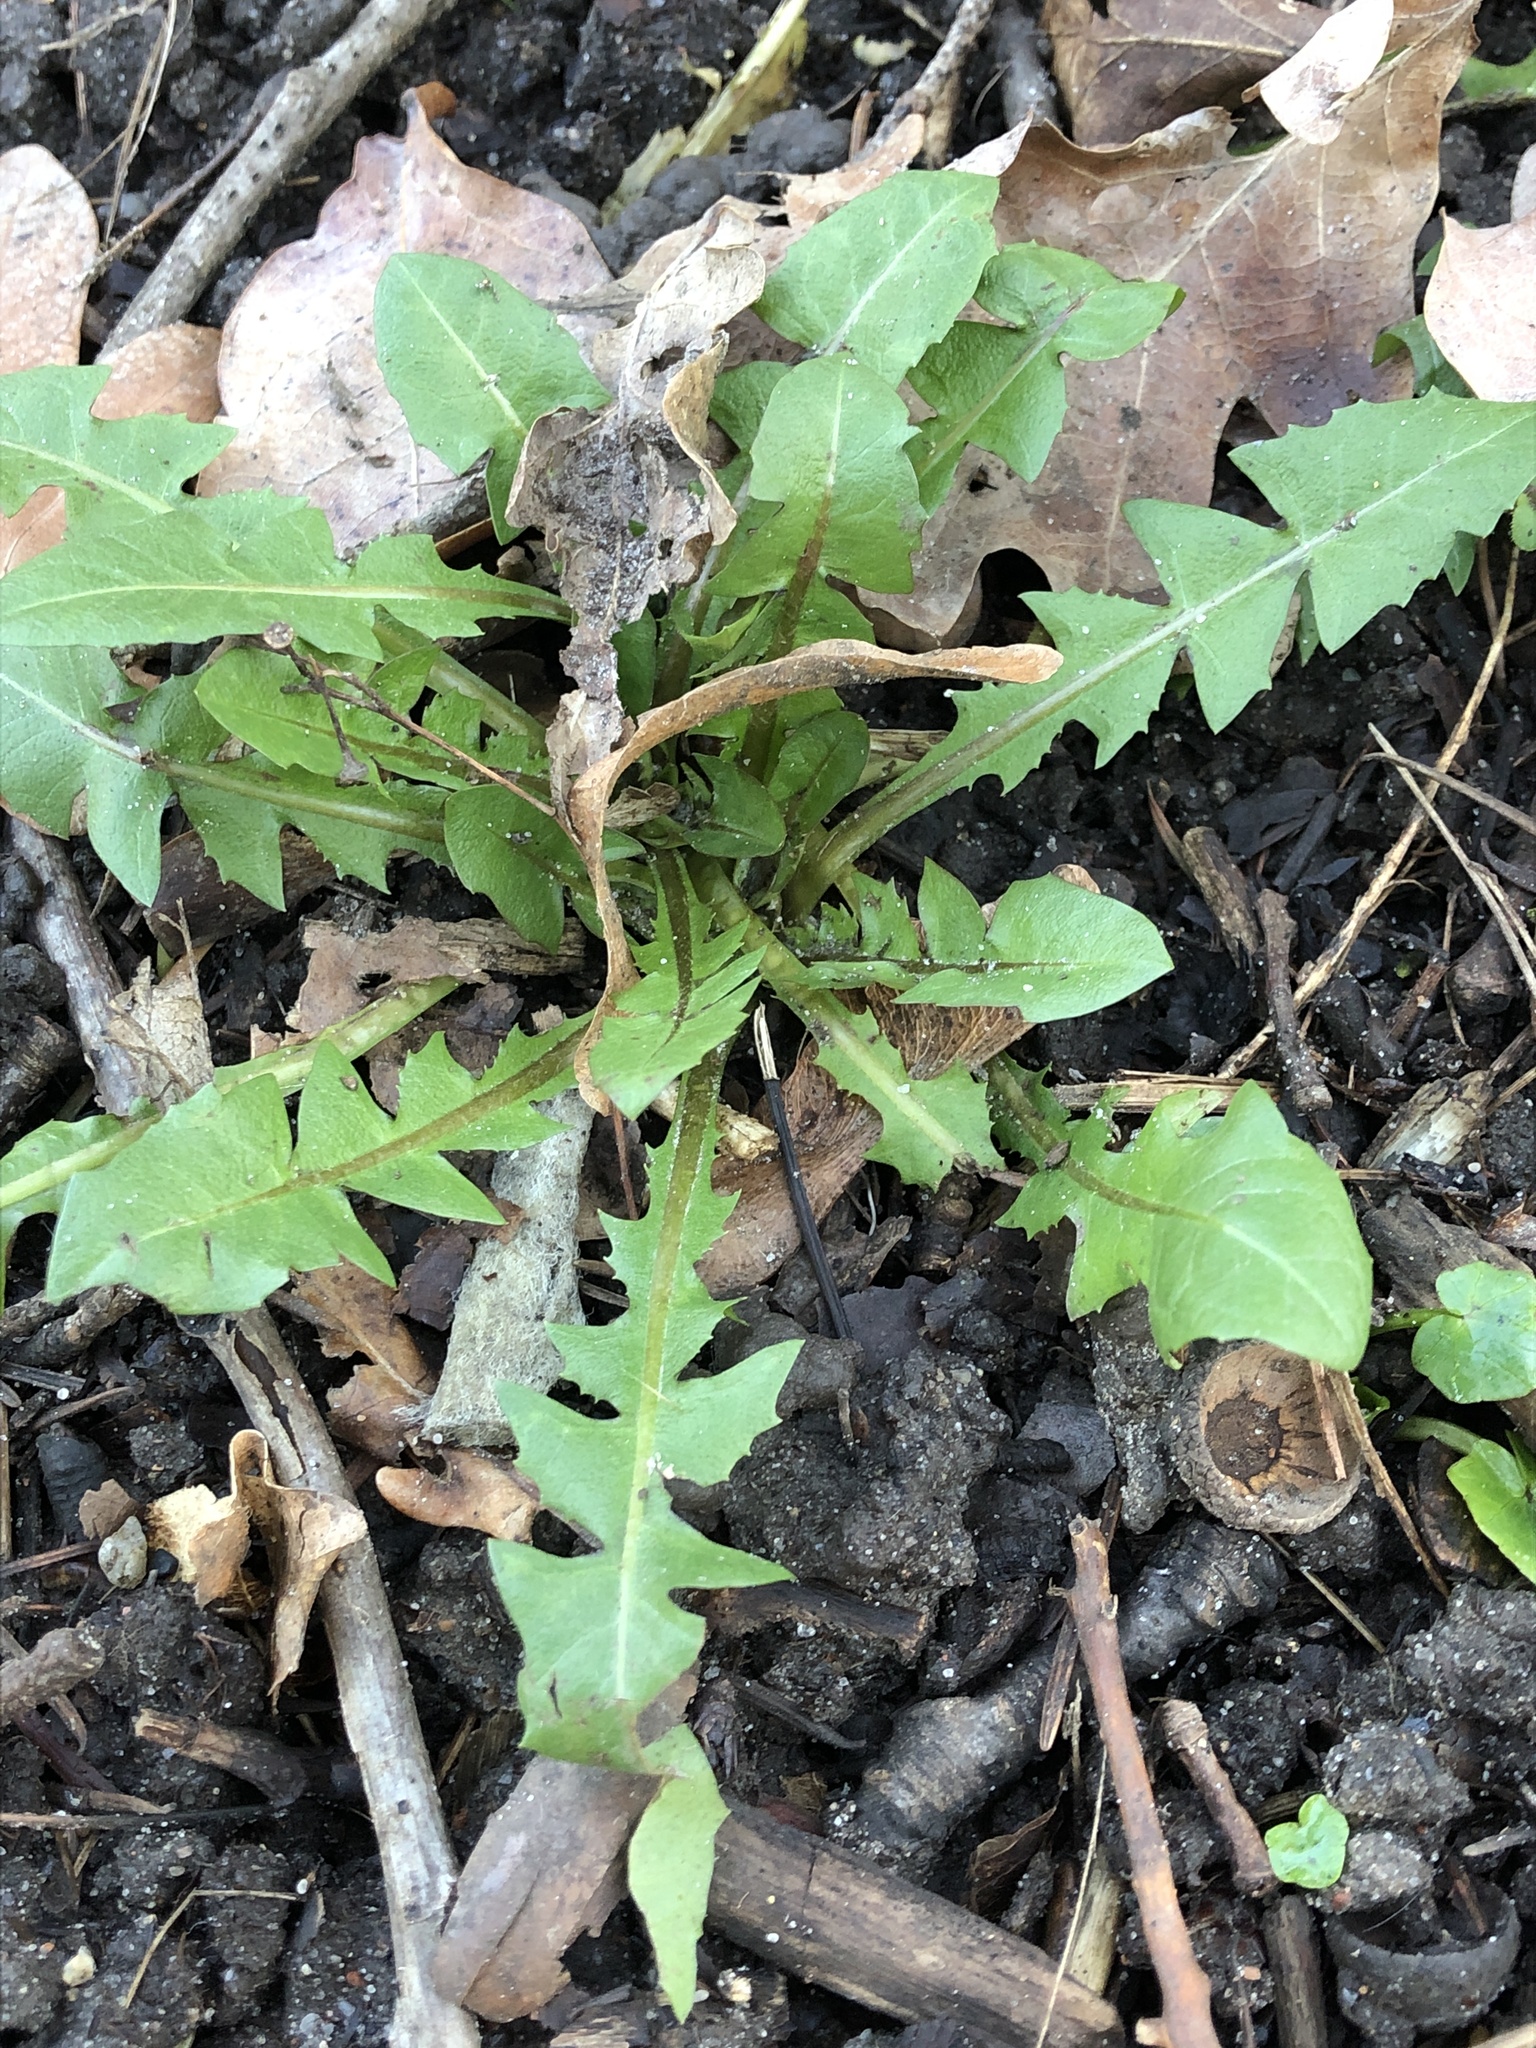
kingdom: Plantae
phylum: Tracheophyta
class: Magnoliopsida
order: Asterales
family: Asteraceae
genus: Taraxacum
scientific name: Taraxacum officinale
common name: Common dandelion
